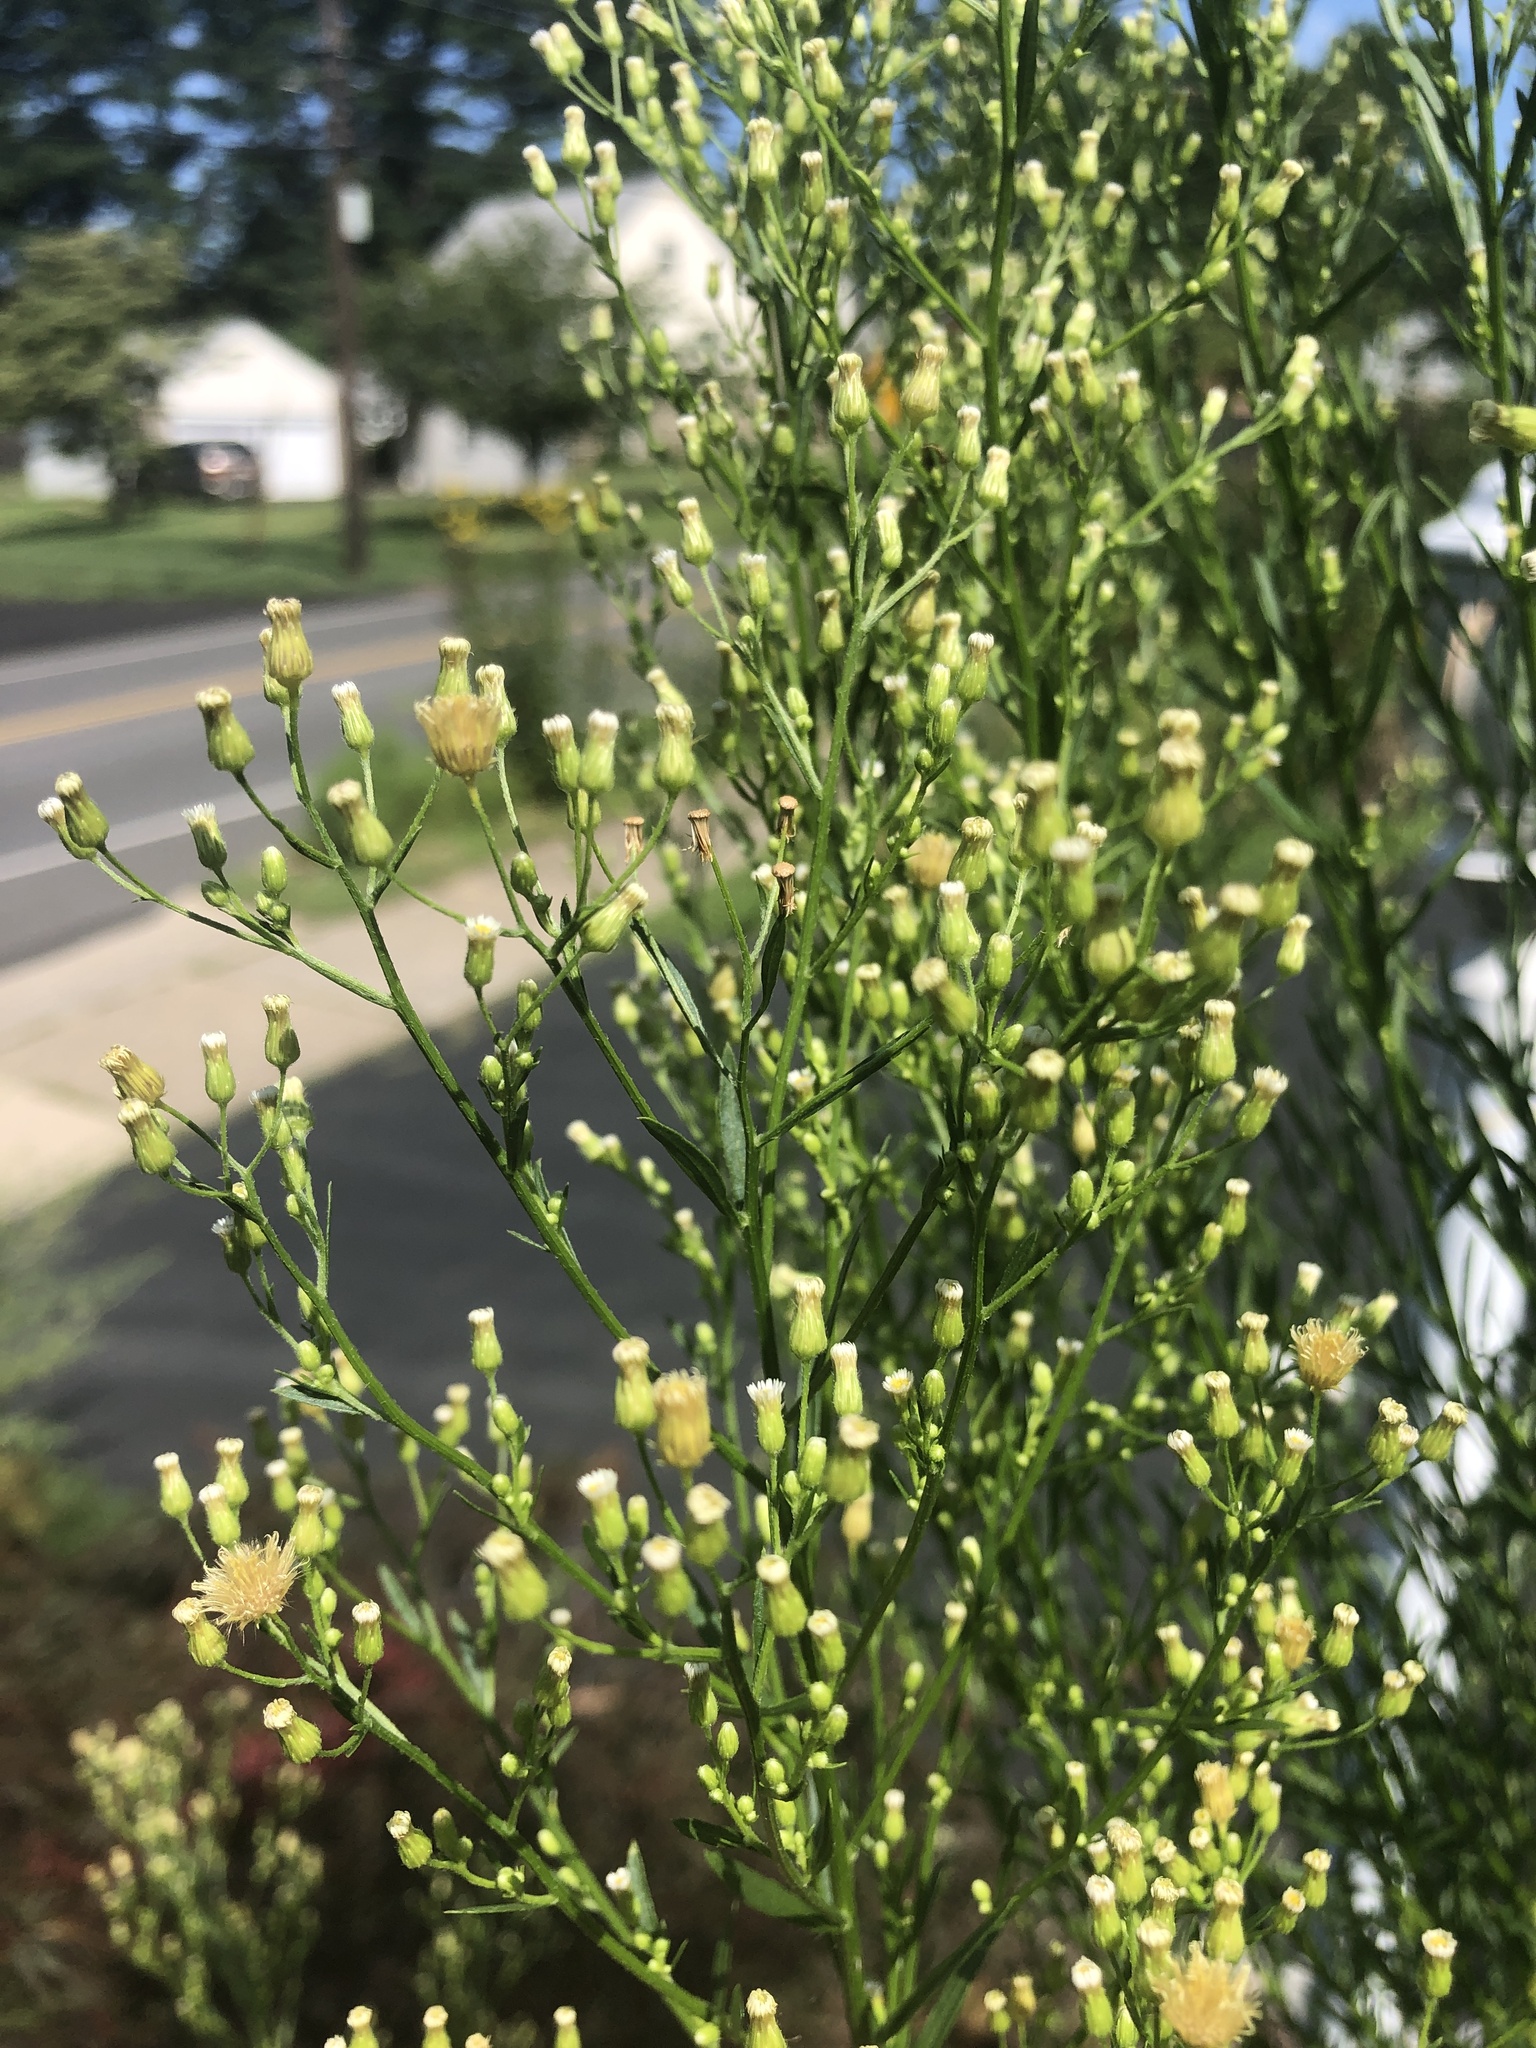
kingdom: Plantae
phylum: Tracheophyta
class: Magnoliopsida
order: Asterales
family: Asteraceae
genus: Erigeron
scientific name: Erigeron canadensis
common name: Canadian fleabane
